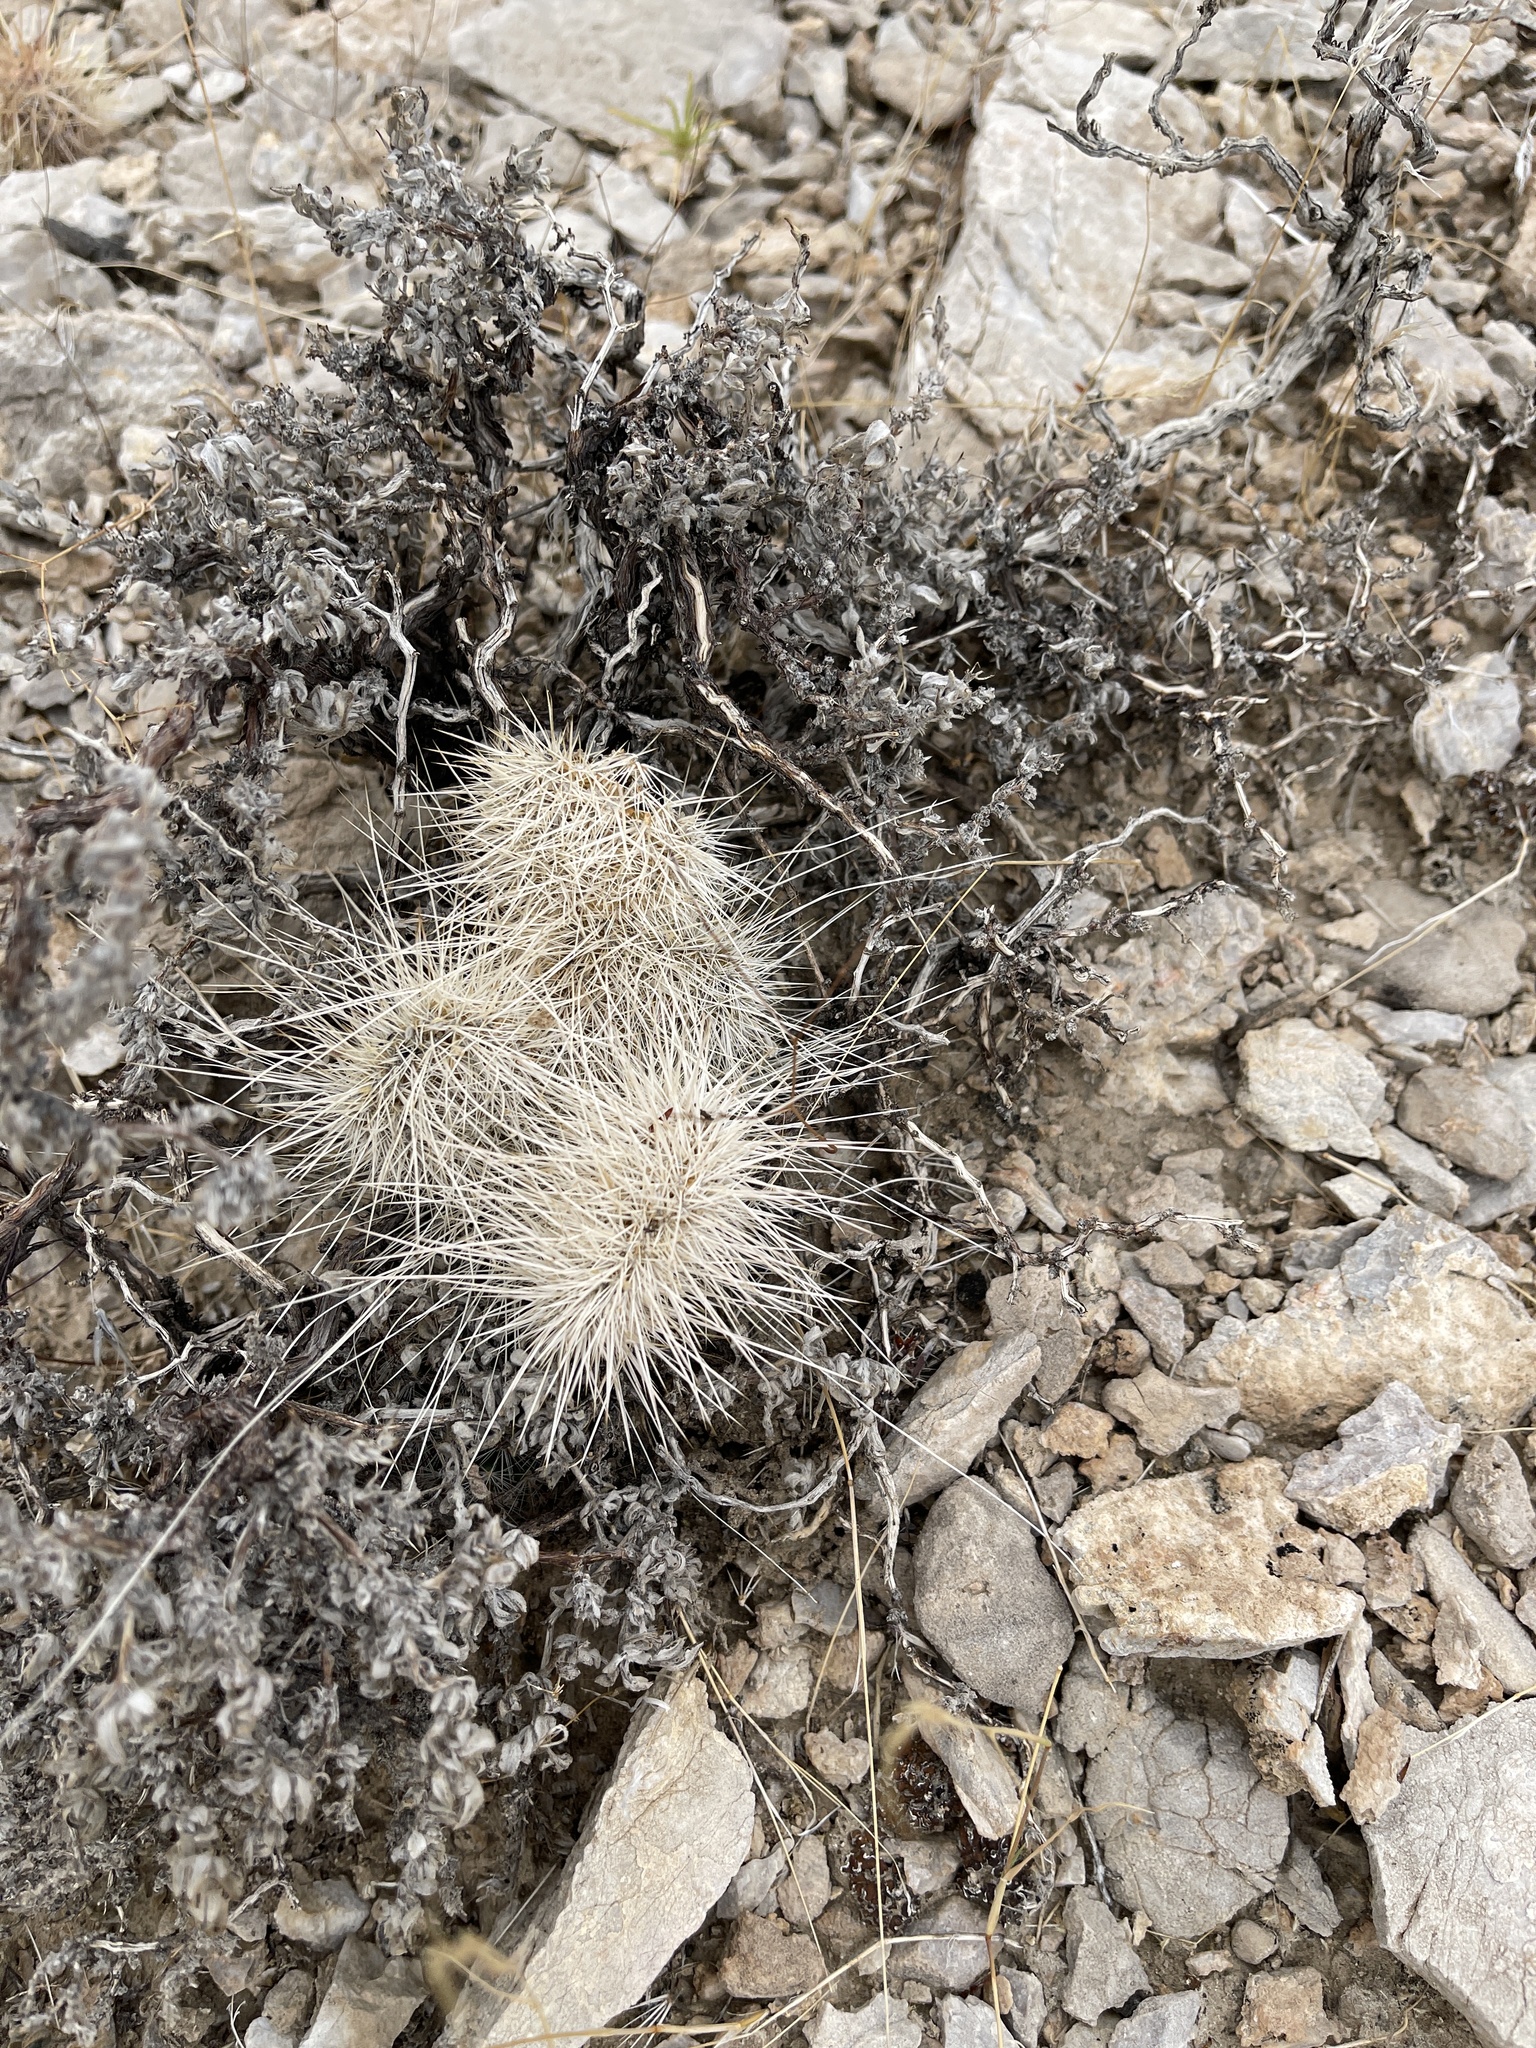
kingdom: Plantae
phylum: Tracheophyta
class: Magnoliopsida
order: Caryophyllales
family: Cactaceae
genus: Opuntia
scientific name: Opuntia polyacantha
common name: Plains prickly-pear
